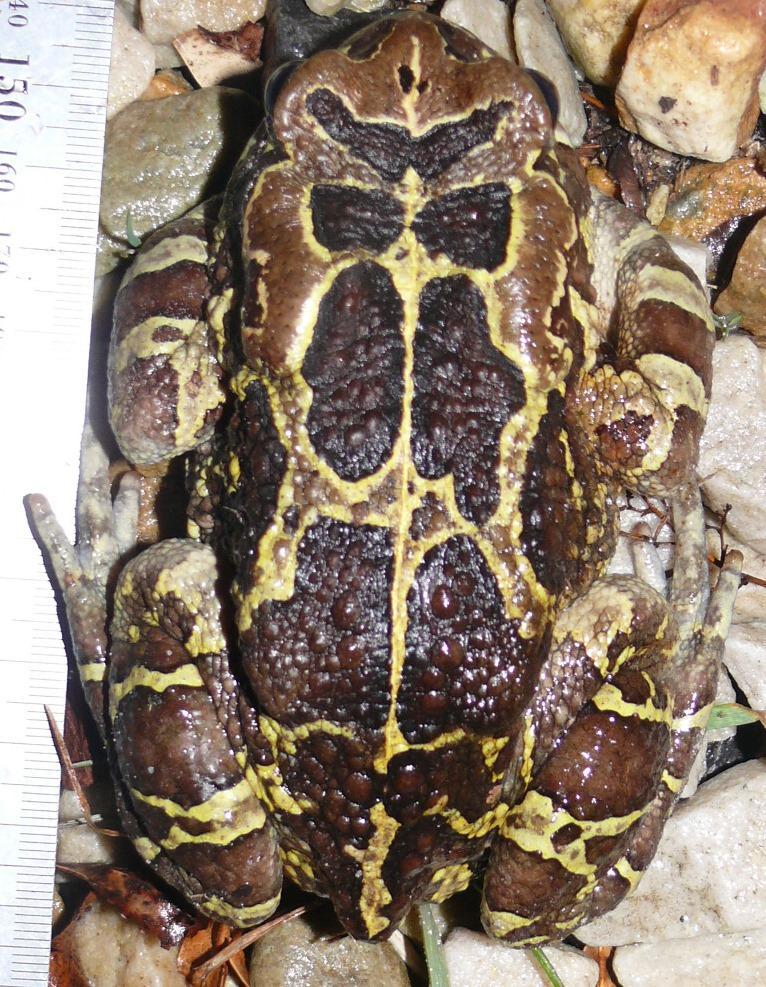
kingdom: Animalia
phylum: Chordata
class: Amphibia
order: Anura
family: Bufonidae
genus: Sclerophrys
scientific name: Sclerophrys pantherina
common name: Panther toad
